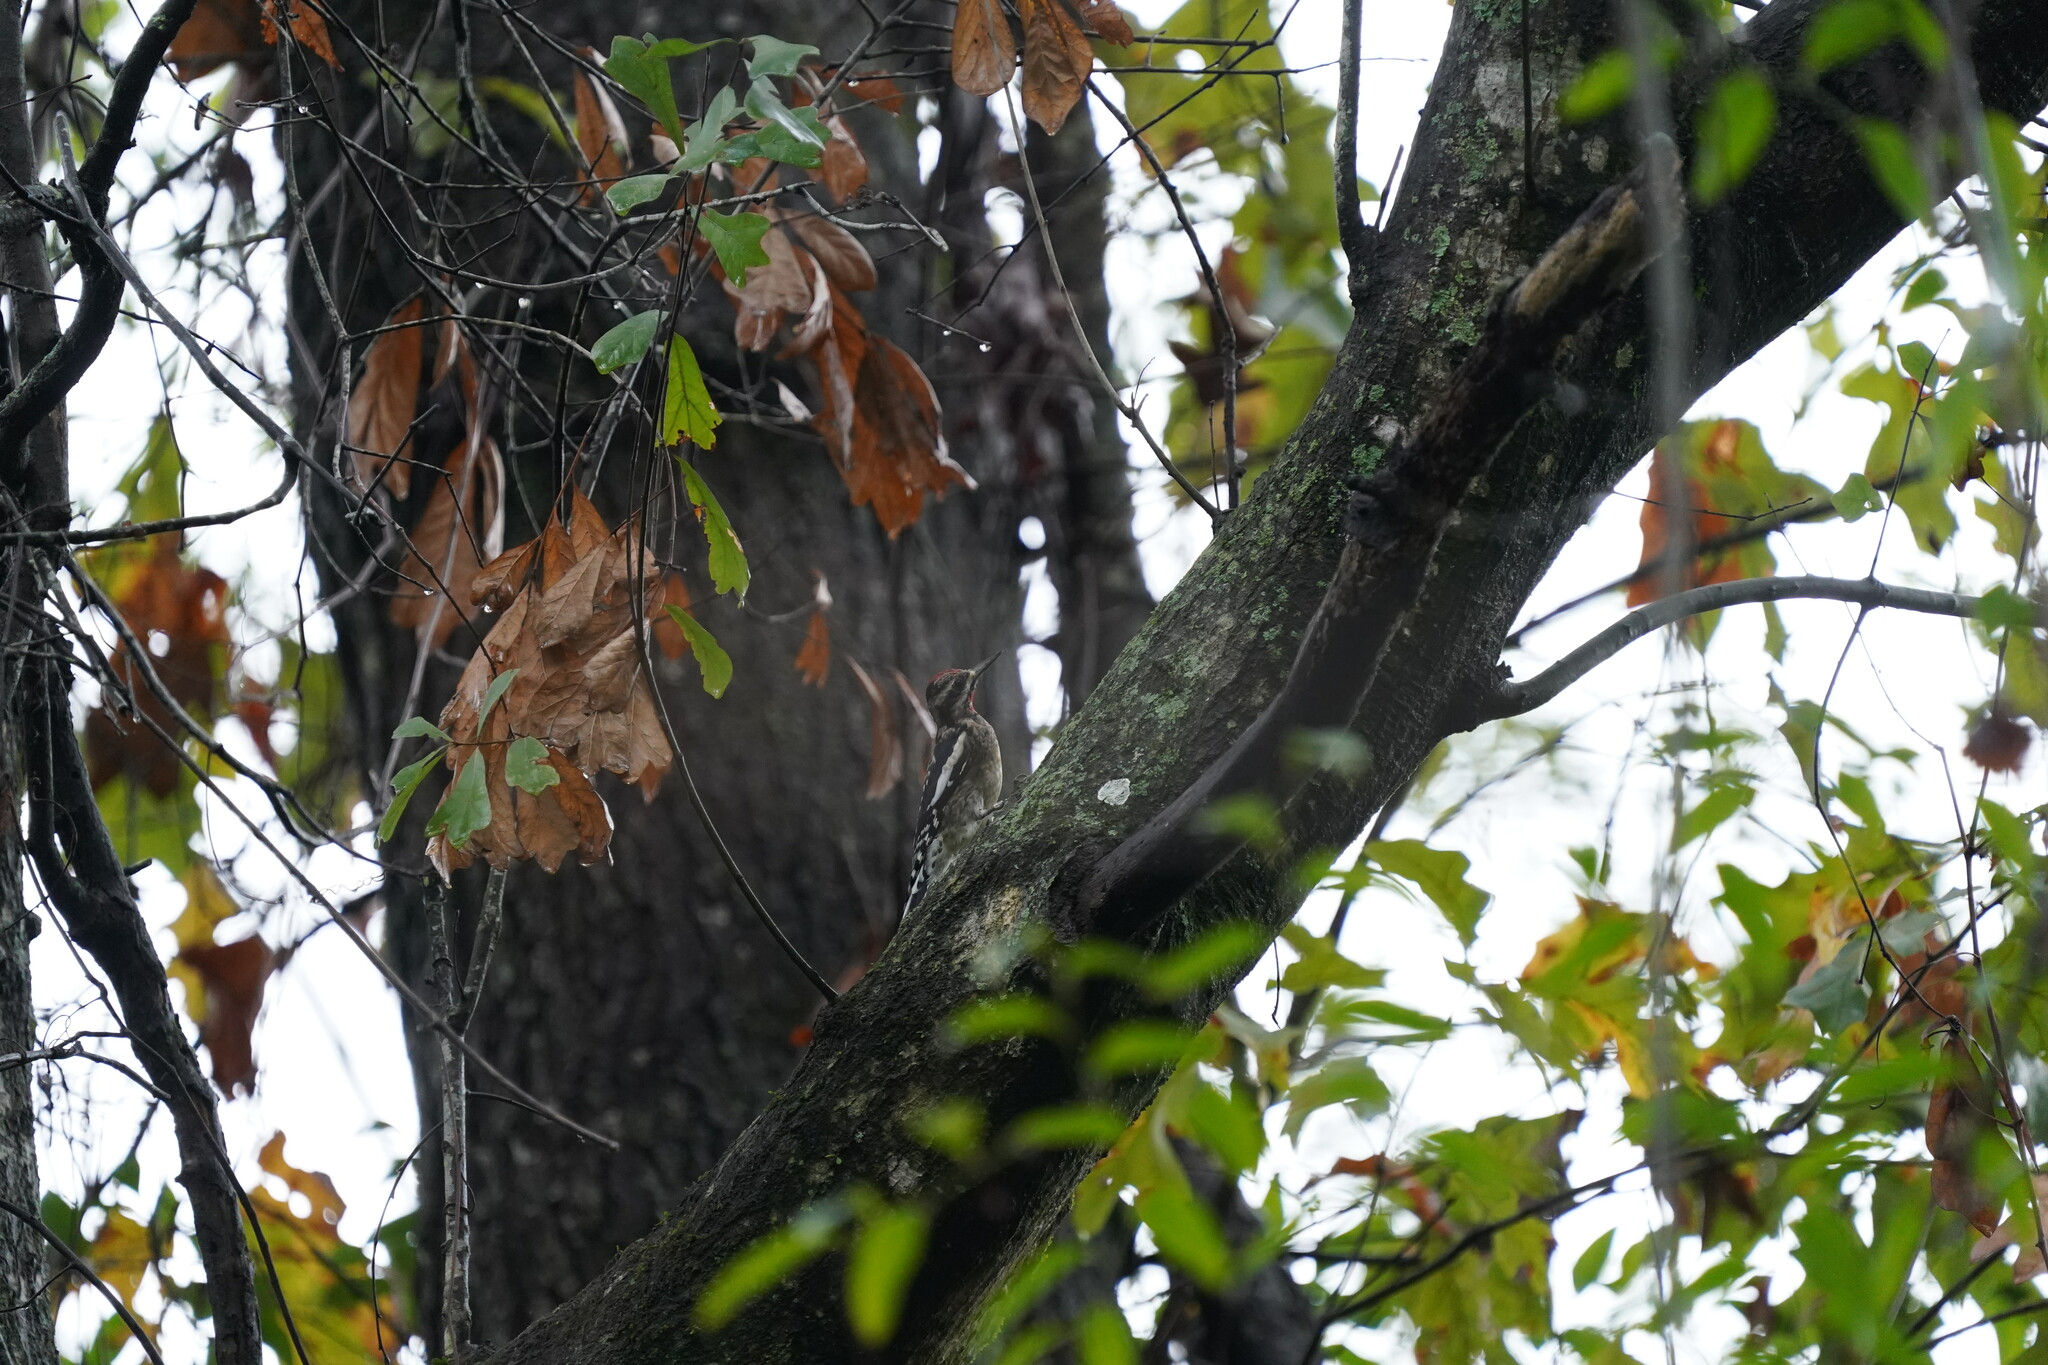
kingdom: Animalia
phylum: Chordata
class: Aves
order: Piciformes
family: Picidae
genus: Sphyrapicus
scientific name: Sphyrapicus varius
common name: Yellow-bellied sapsucker
